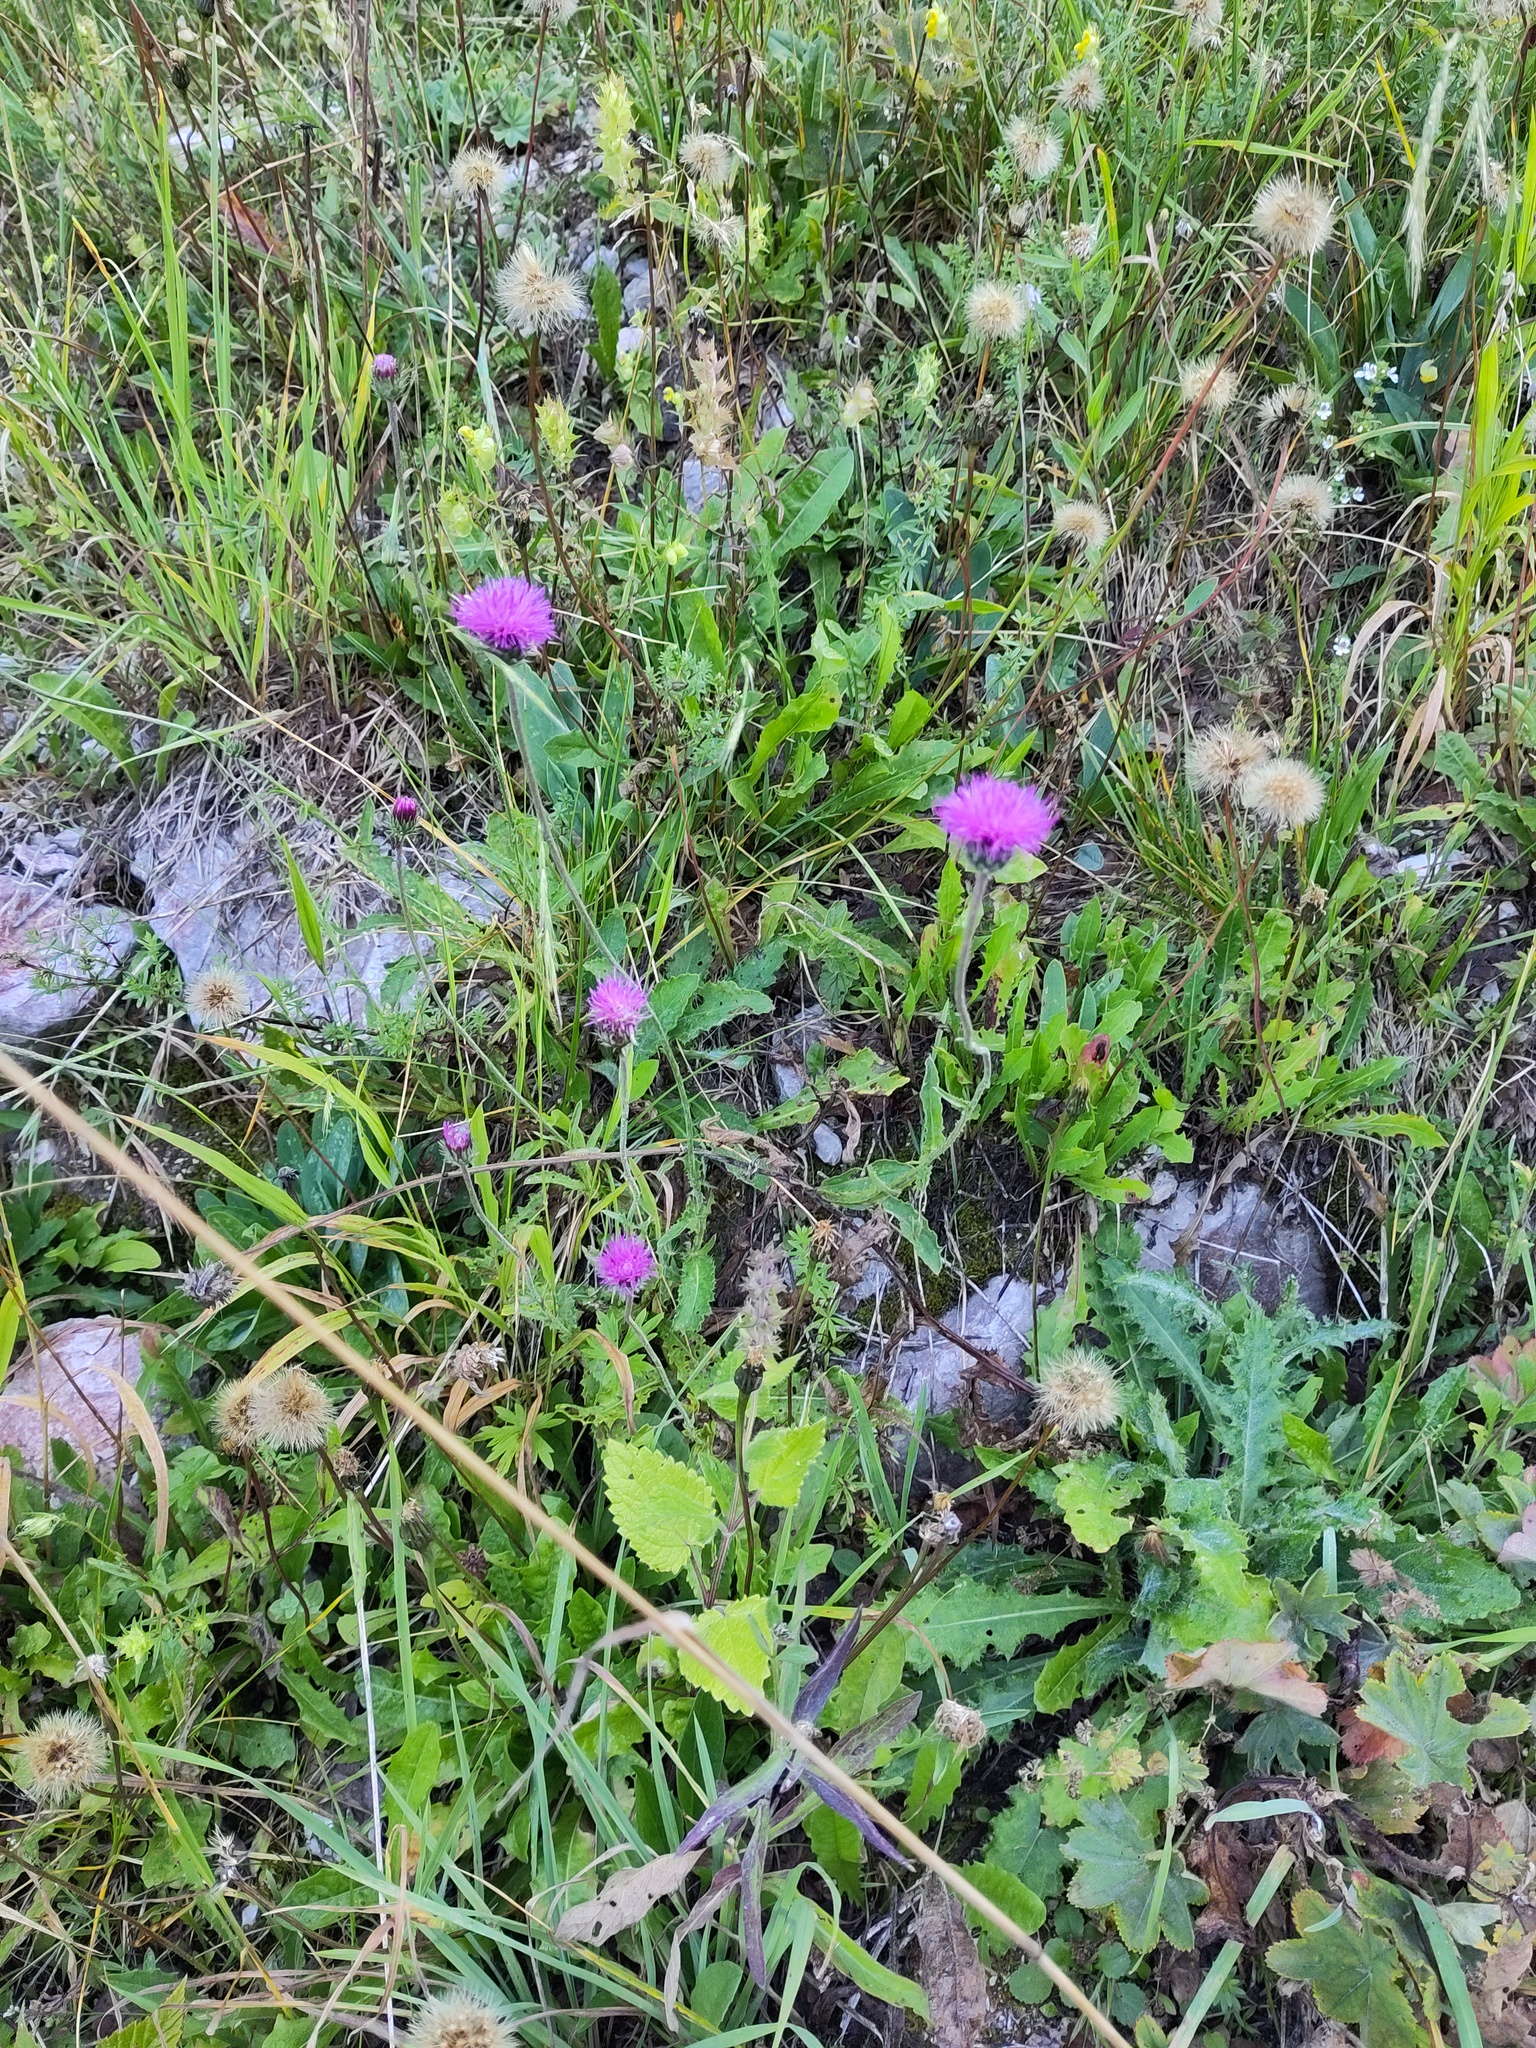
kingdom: Plantae
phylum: Tracheophyta
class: Magnoliopsida
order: Asterales
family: Asteraceae
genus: Carduus
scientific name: Carduus defloratus
